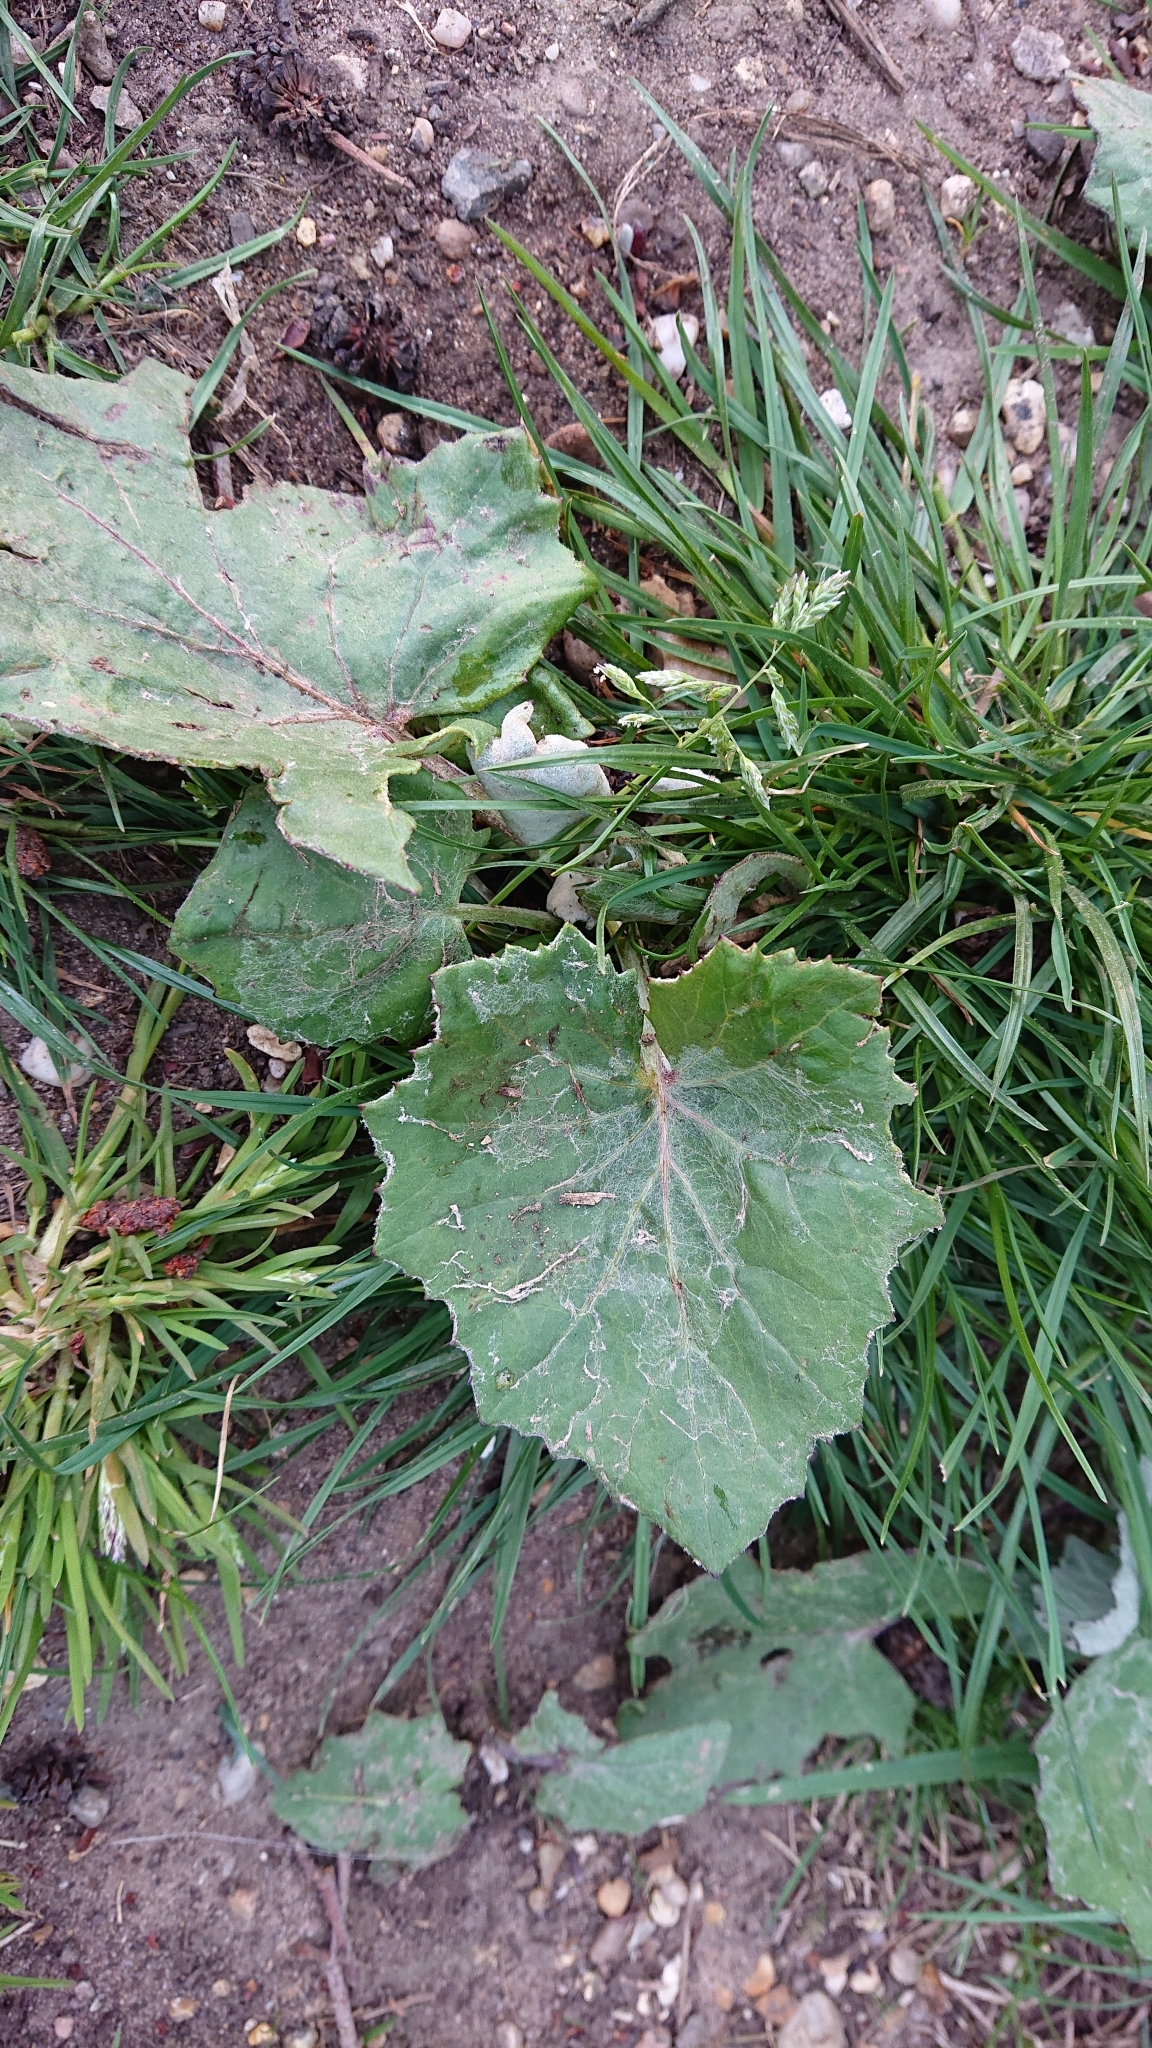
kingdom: Plantae
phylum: Tracheophyta
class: Magnoliopsida
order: Asterales
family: Asteraceae
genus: Tussilago
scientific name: Tussilago farfara
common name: Coltsfoot
